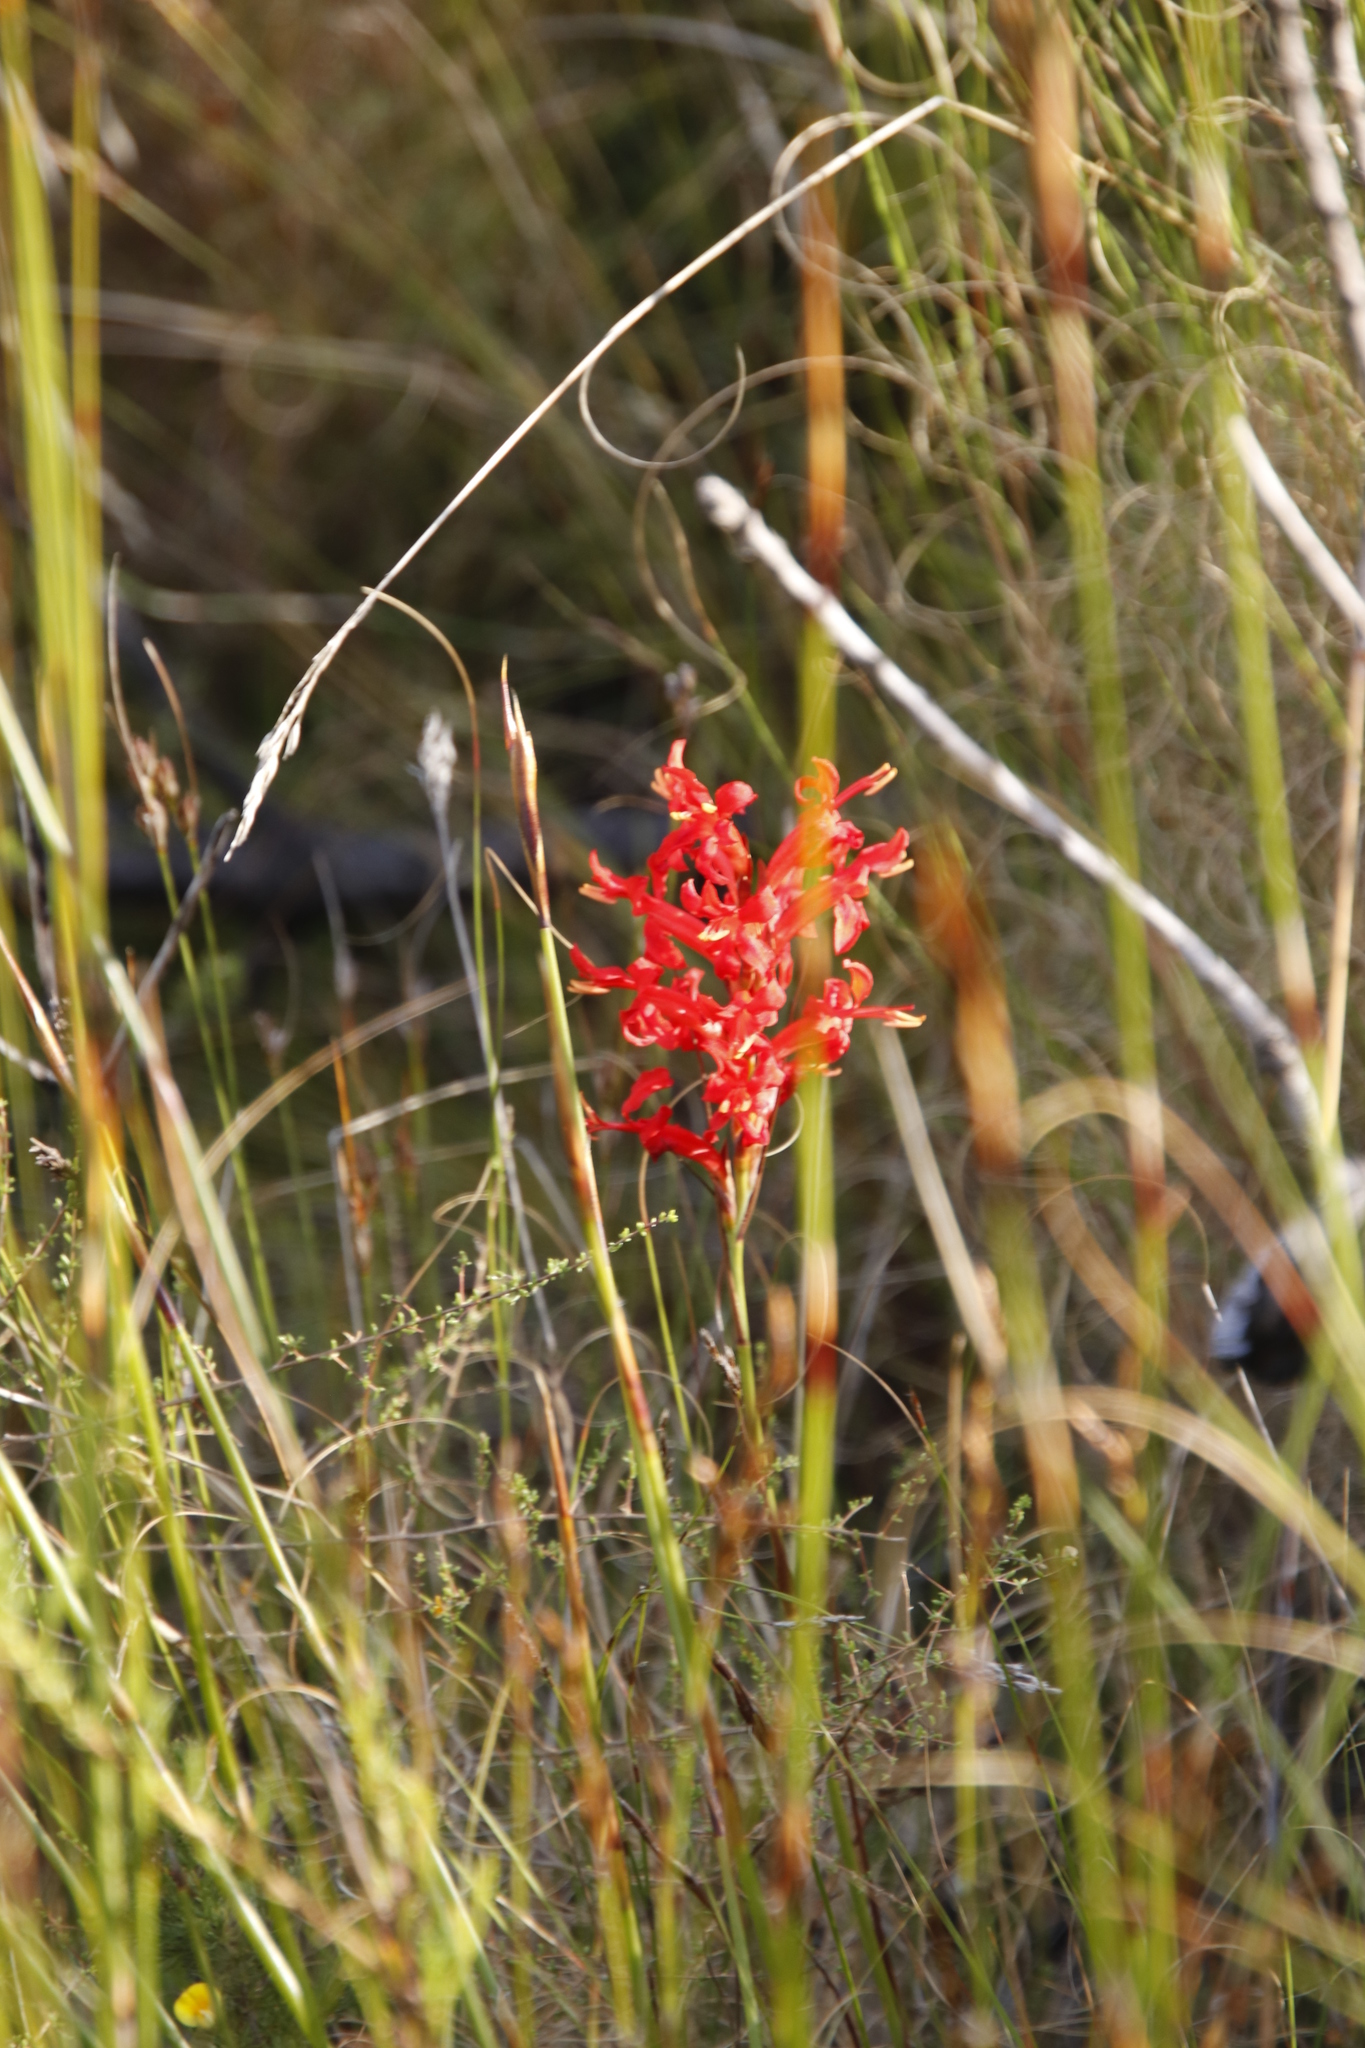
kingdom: Plantae
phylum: Tracheophyta
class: Liliopsida
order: Asparagales
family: Iridaceae
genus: Tritoniopsis
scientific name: Tritoniopsis triticea
